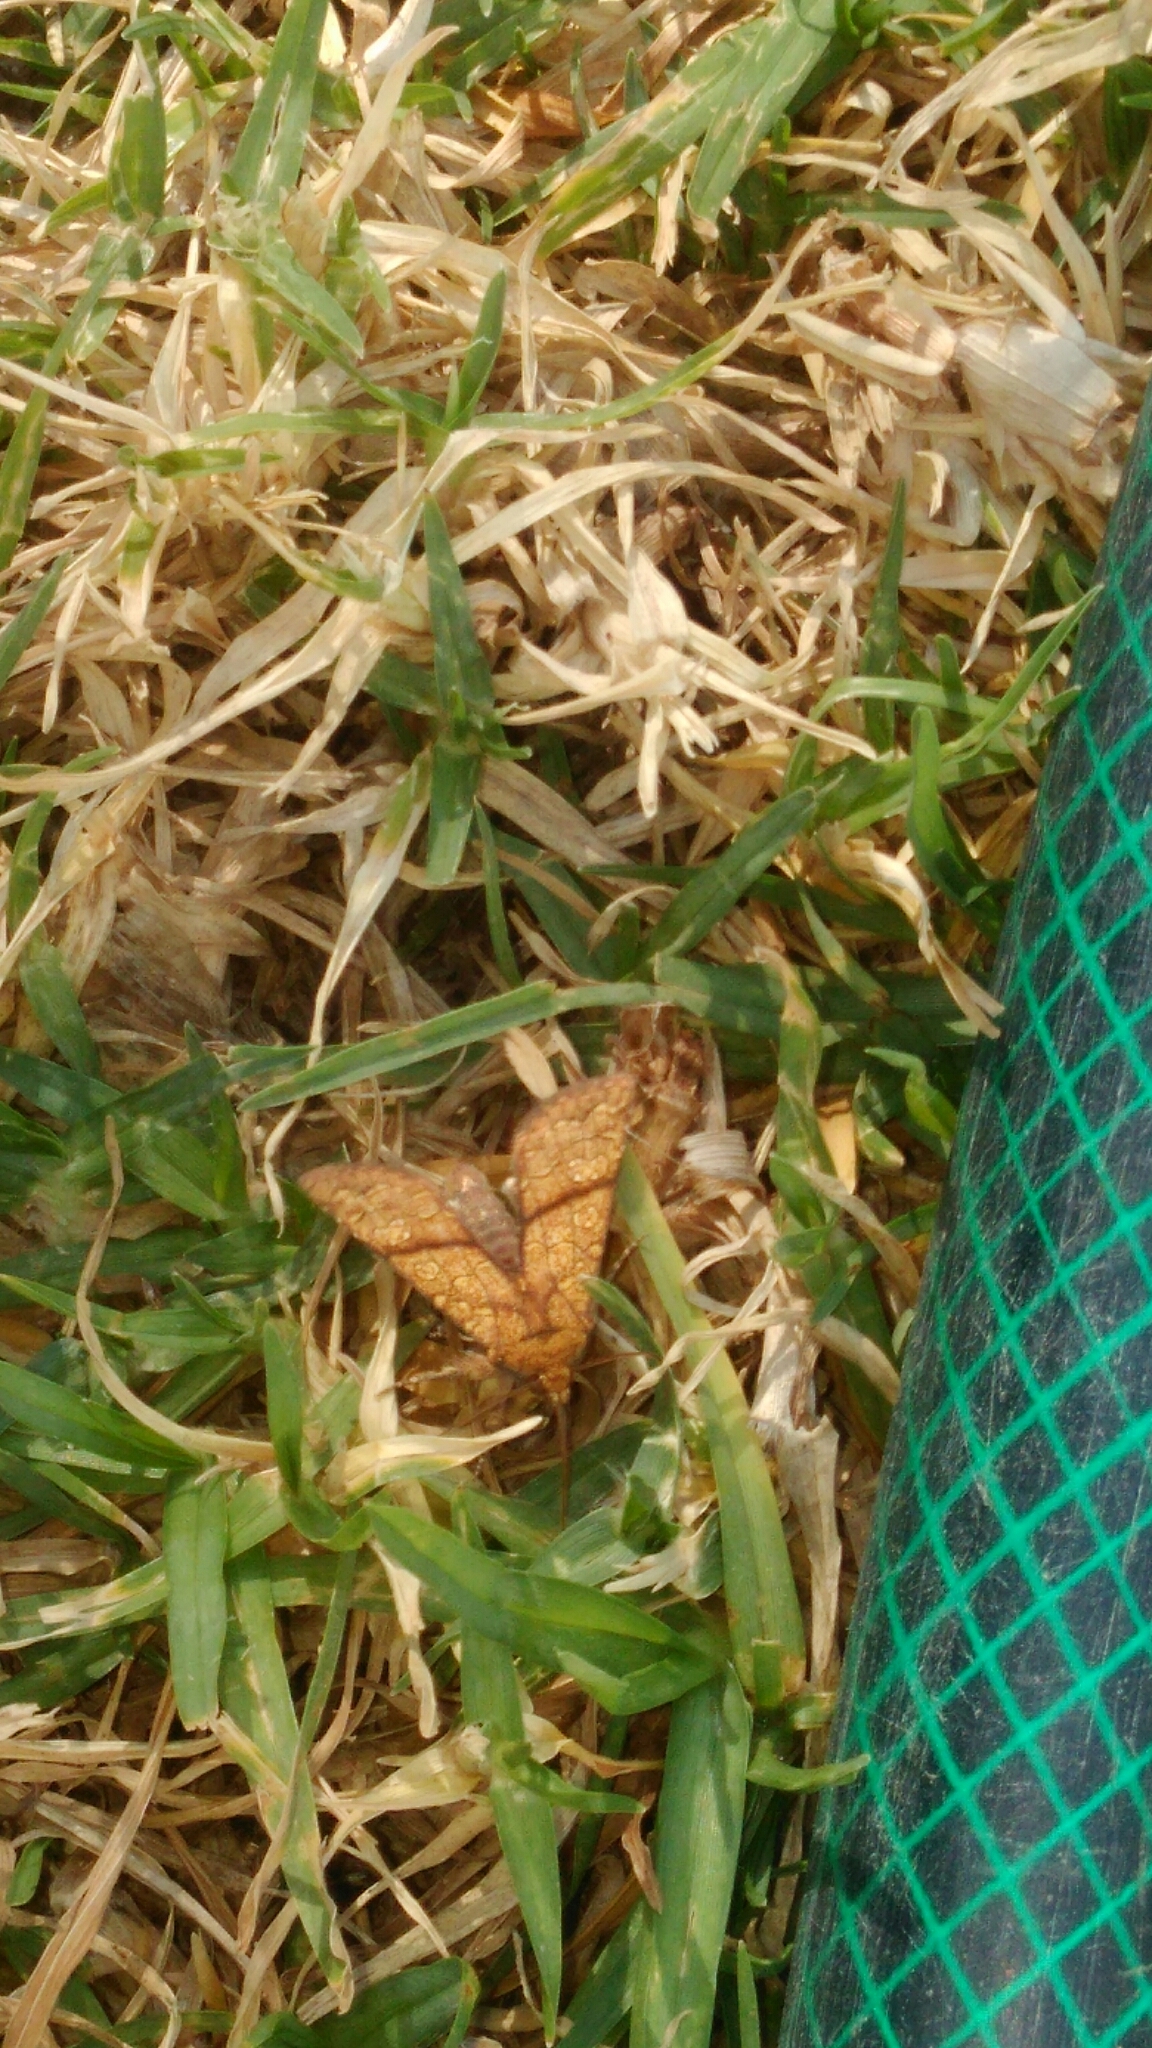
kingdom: Animalia
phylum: Arthropoda
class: Insecta
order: Lepidoptera
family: Noctuidae
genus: Helicoverpa
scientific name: Helicoverpa zea
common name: Bollworm
